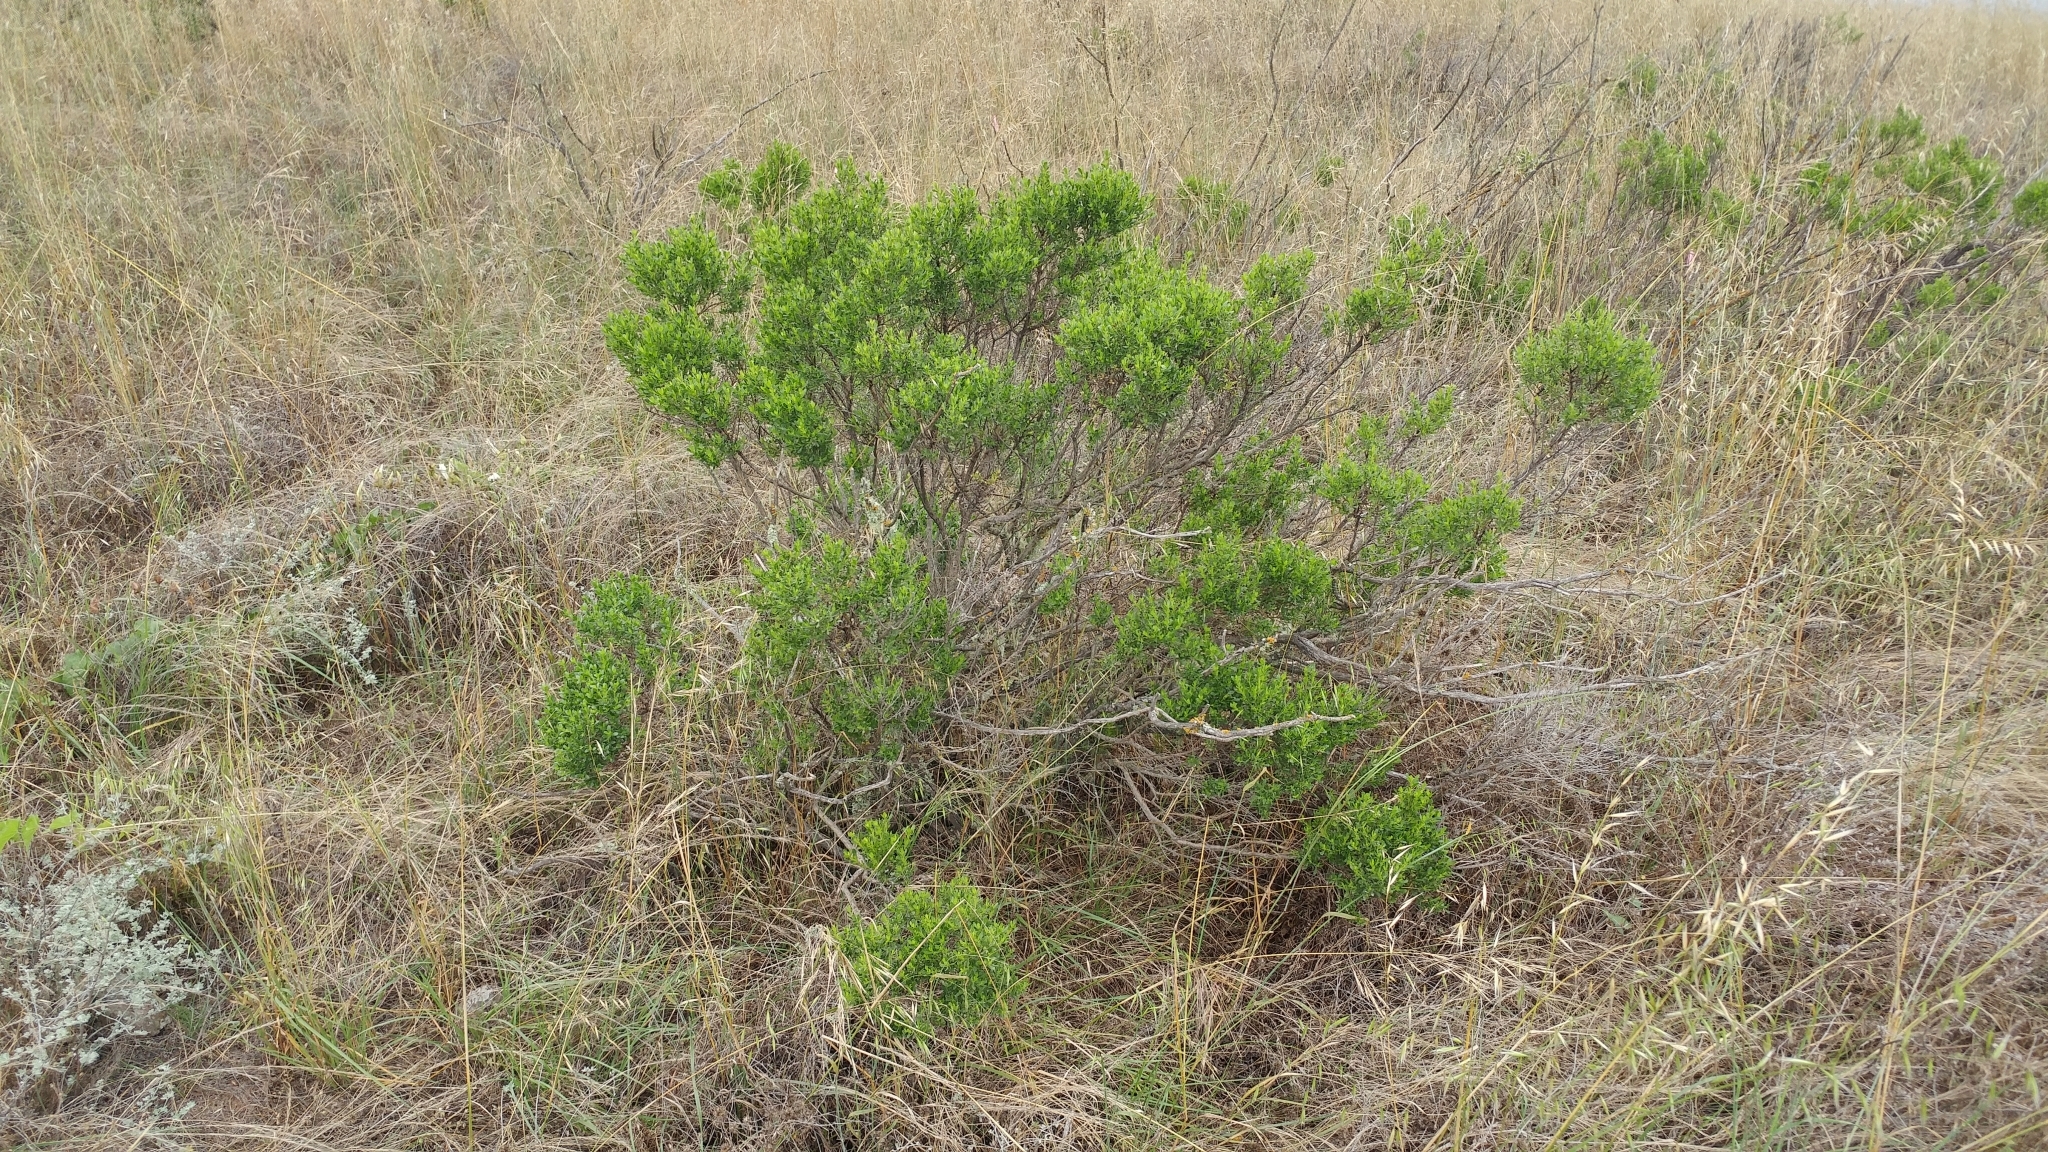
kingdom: Plantae
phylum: Tracheophyta
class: Magnoliopsida
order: Asterales
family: Asteraceae
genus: Baccharis
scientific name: Baccharis pilularis
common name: Coyotebrush
